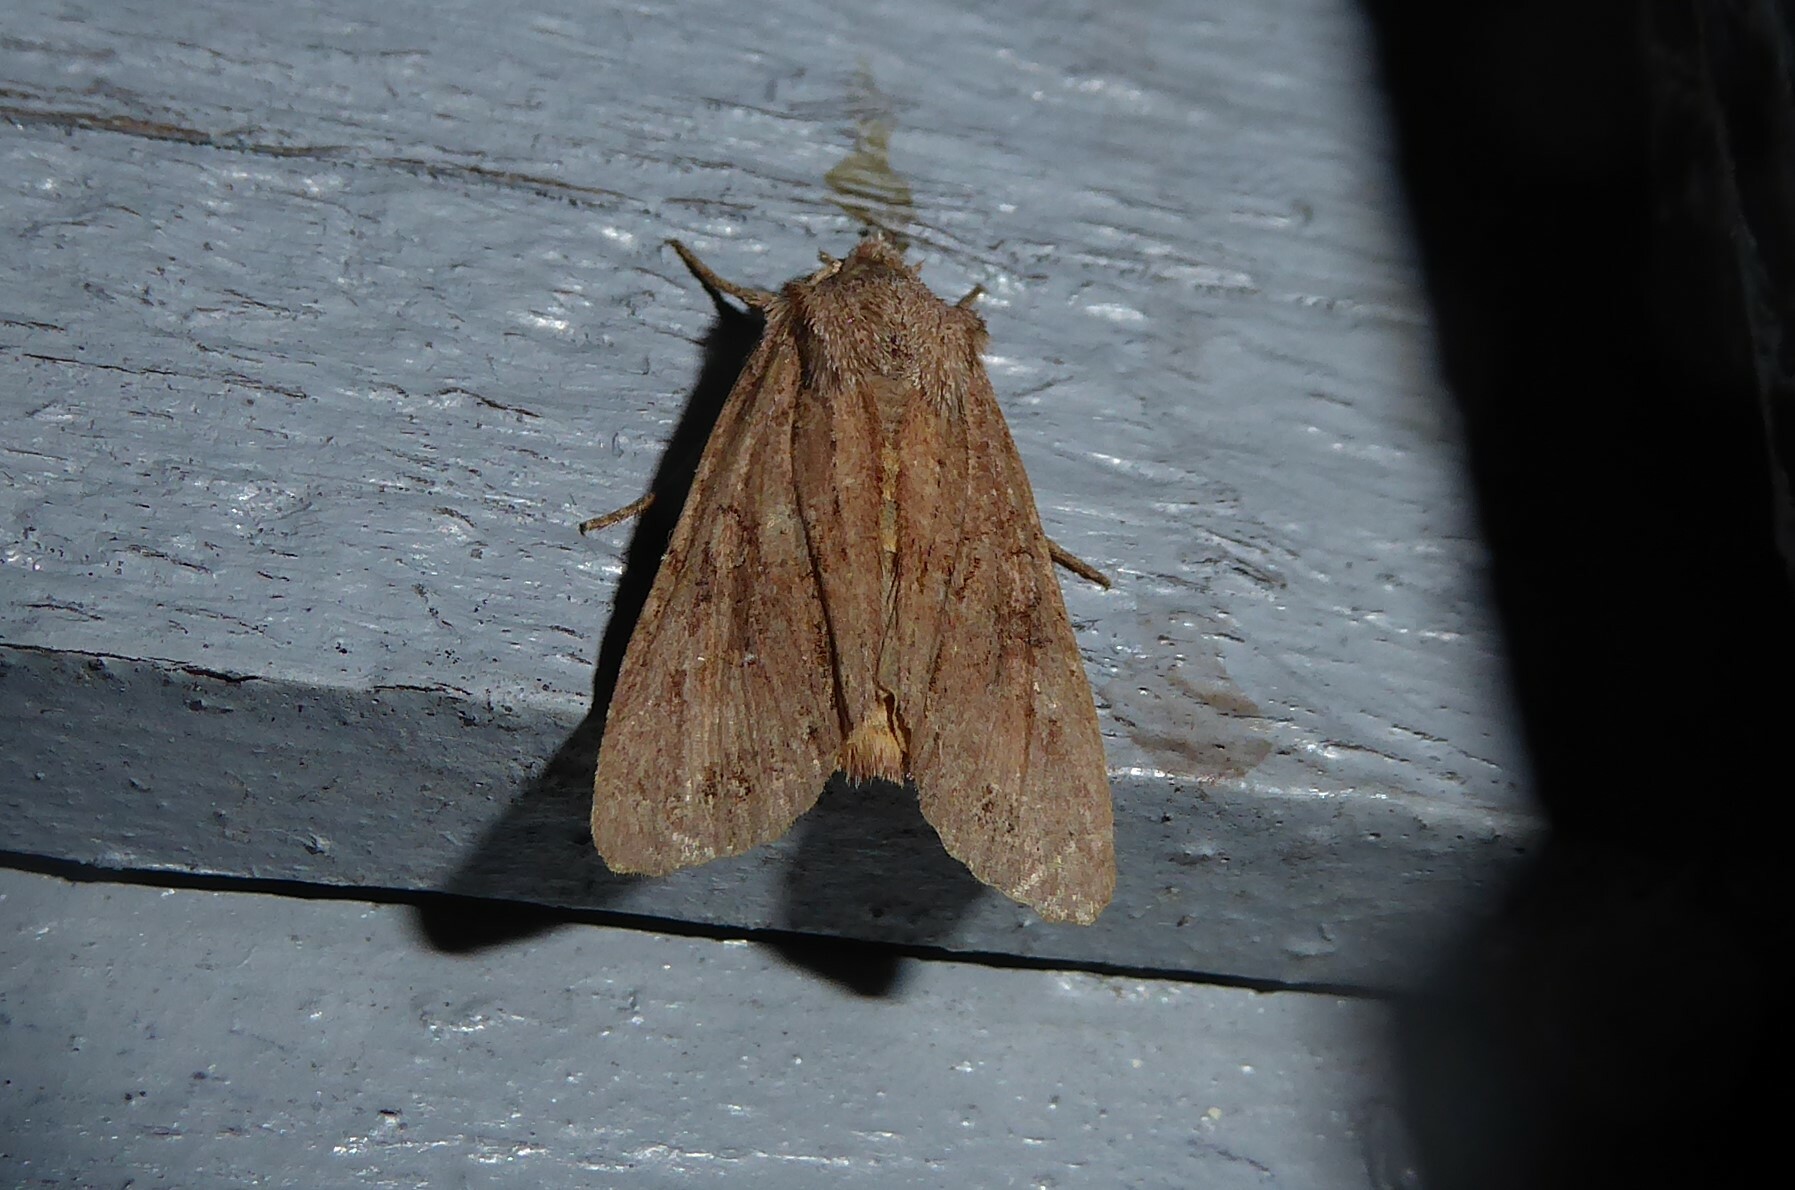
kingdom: Animalia
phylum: Arthropoda
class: Insecta
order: Lepidoptera
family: Noctuidae
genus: Ichneutica
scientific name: Ichneutica
